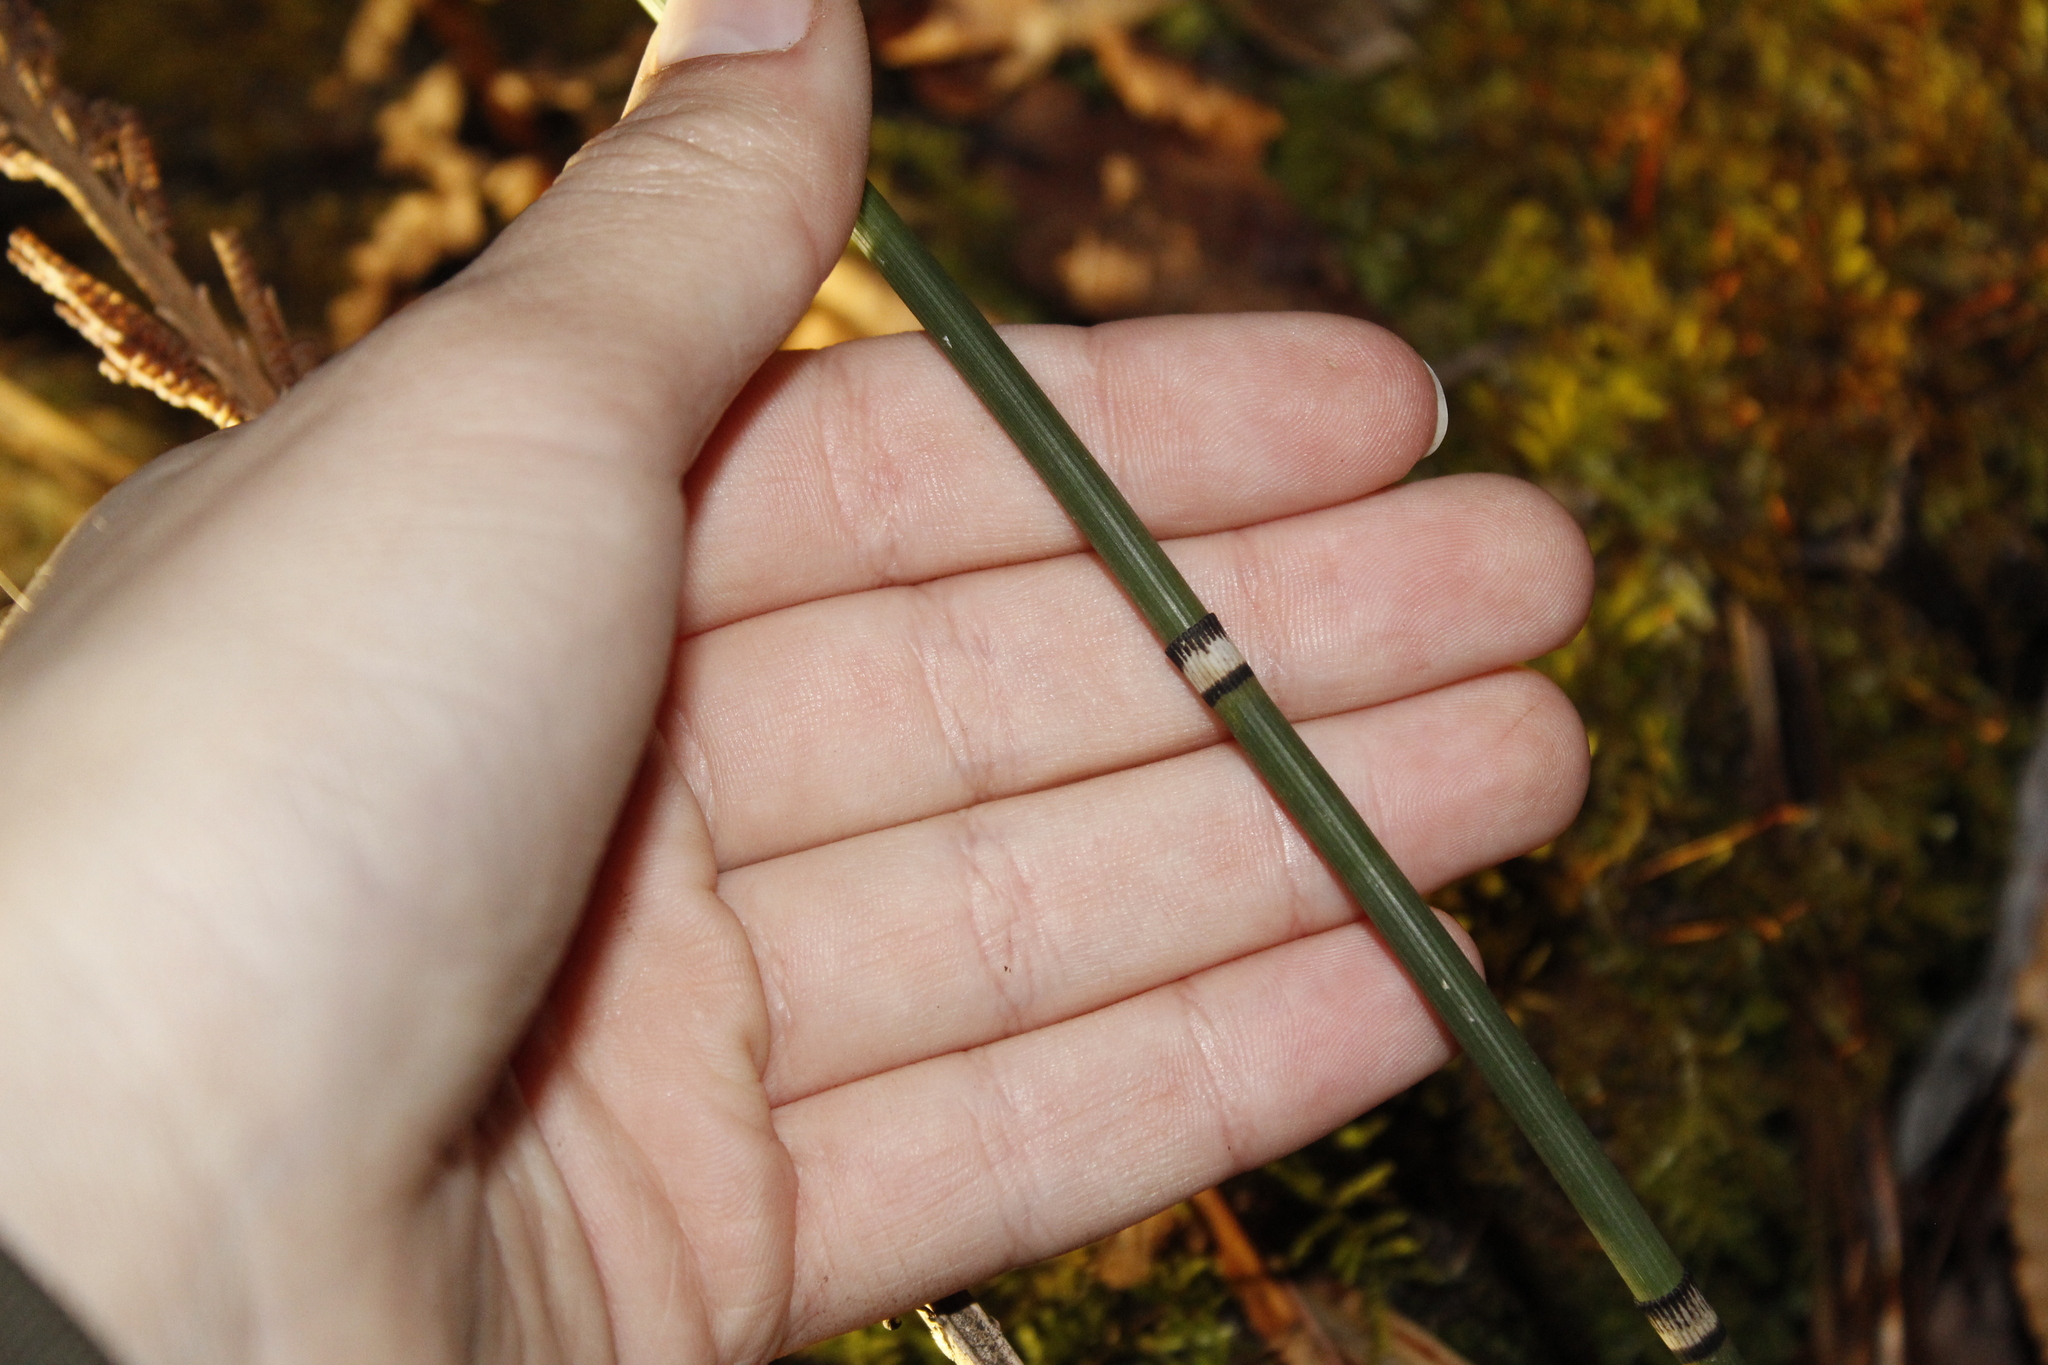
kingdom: Plantae
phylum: Tracheophyta
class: Polypodiopsida
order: Equisetales
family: Equisetaceae
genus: Equisetum
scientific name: Equisetum praealtum
